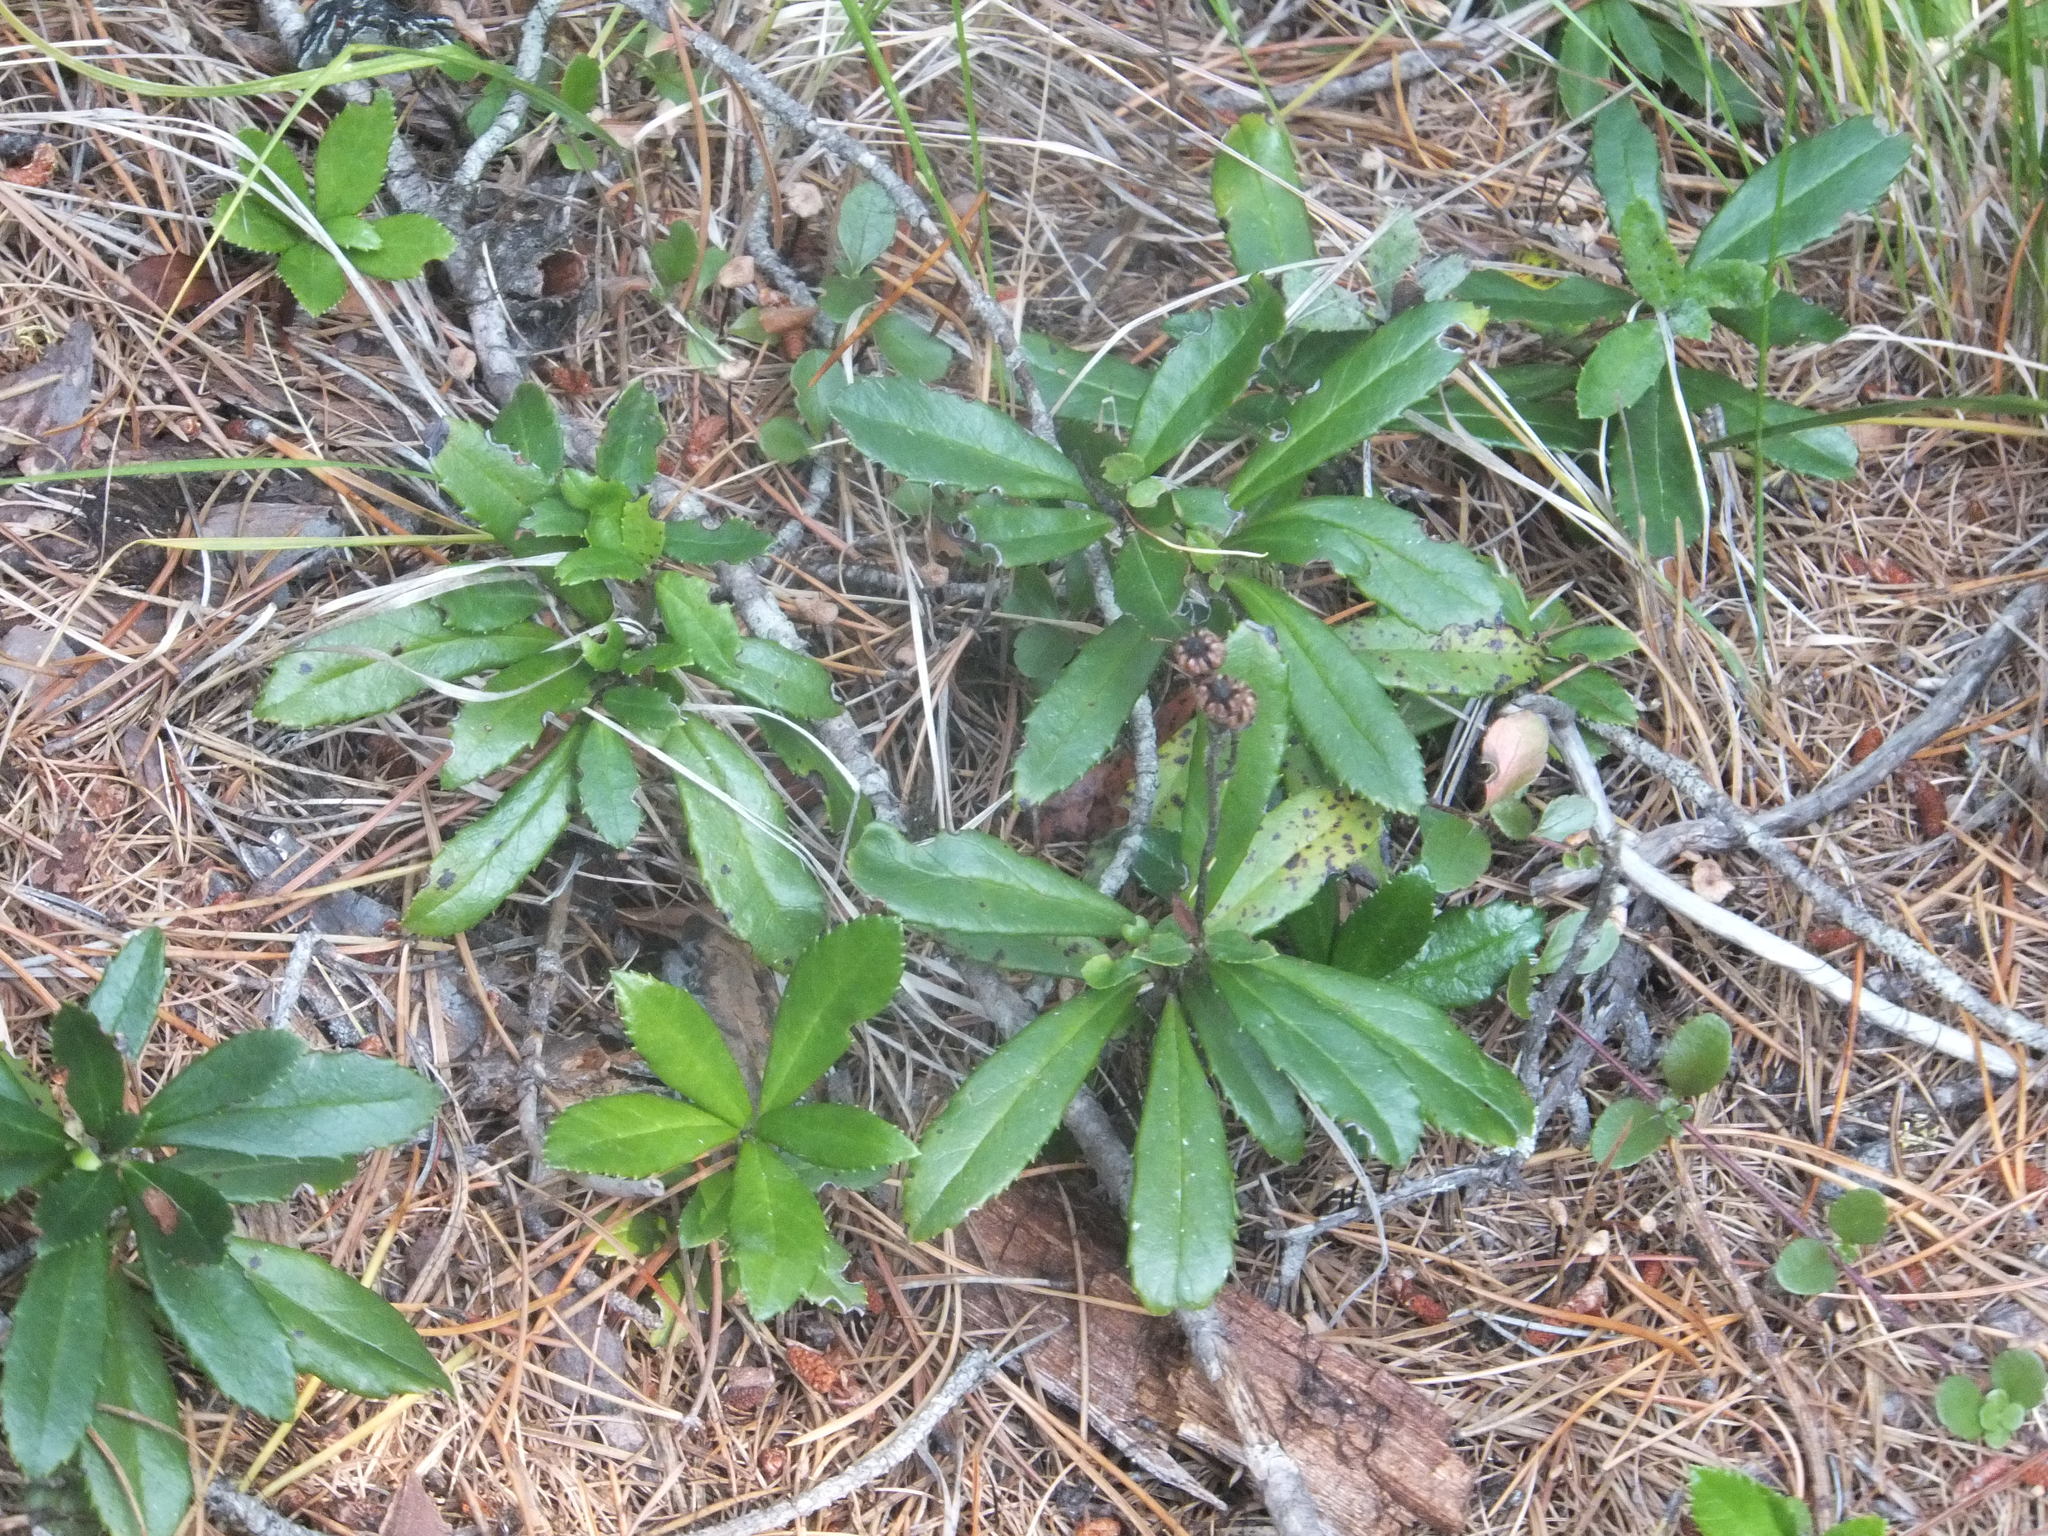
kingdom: Plantae
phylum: Tracheophyta
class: Magnoliopsida
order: Ericales
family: Ericaceae
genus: Chimaphila
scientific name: Chimaphila umbellata
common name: Pipsissewa
